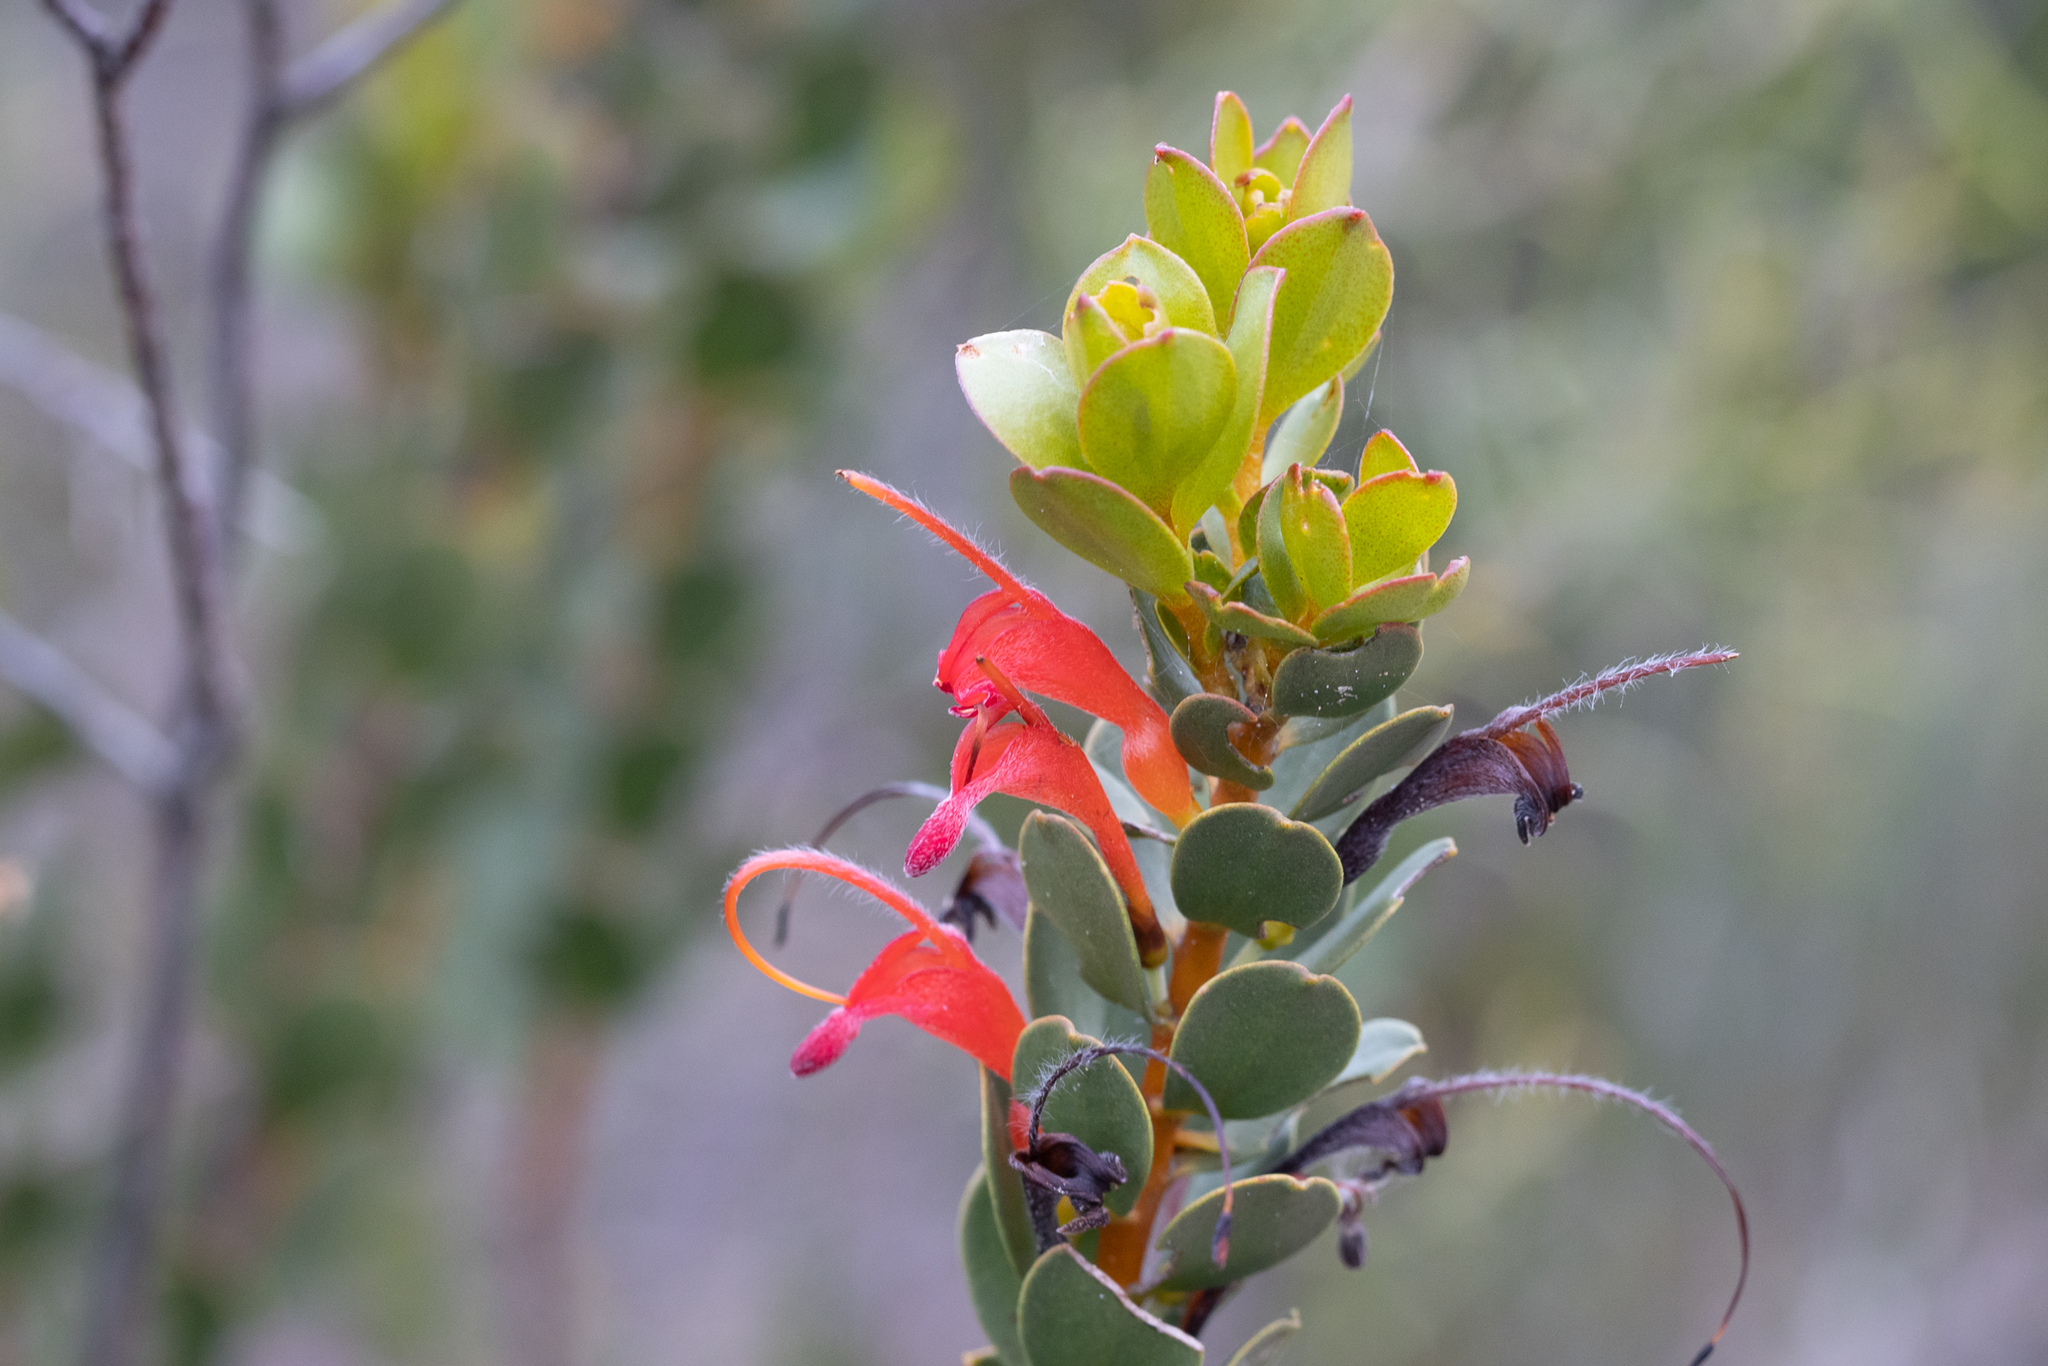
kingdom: Plantae
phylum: Tracheophyta
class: Magnoliopsida
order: Proteales
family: Proteaceae
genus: Adenanthos
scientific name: Adenanthos obovatus
